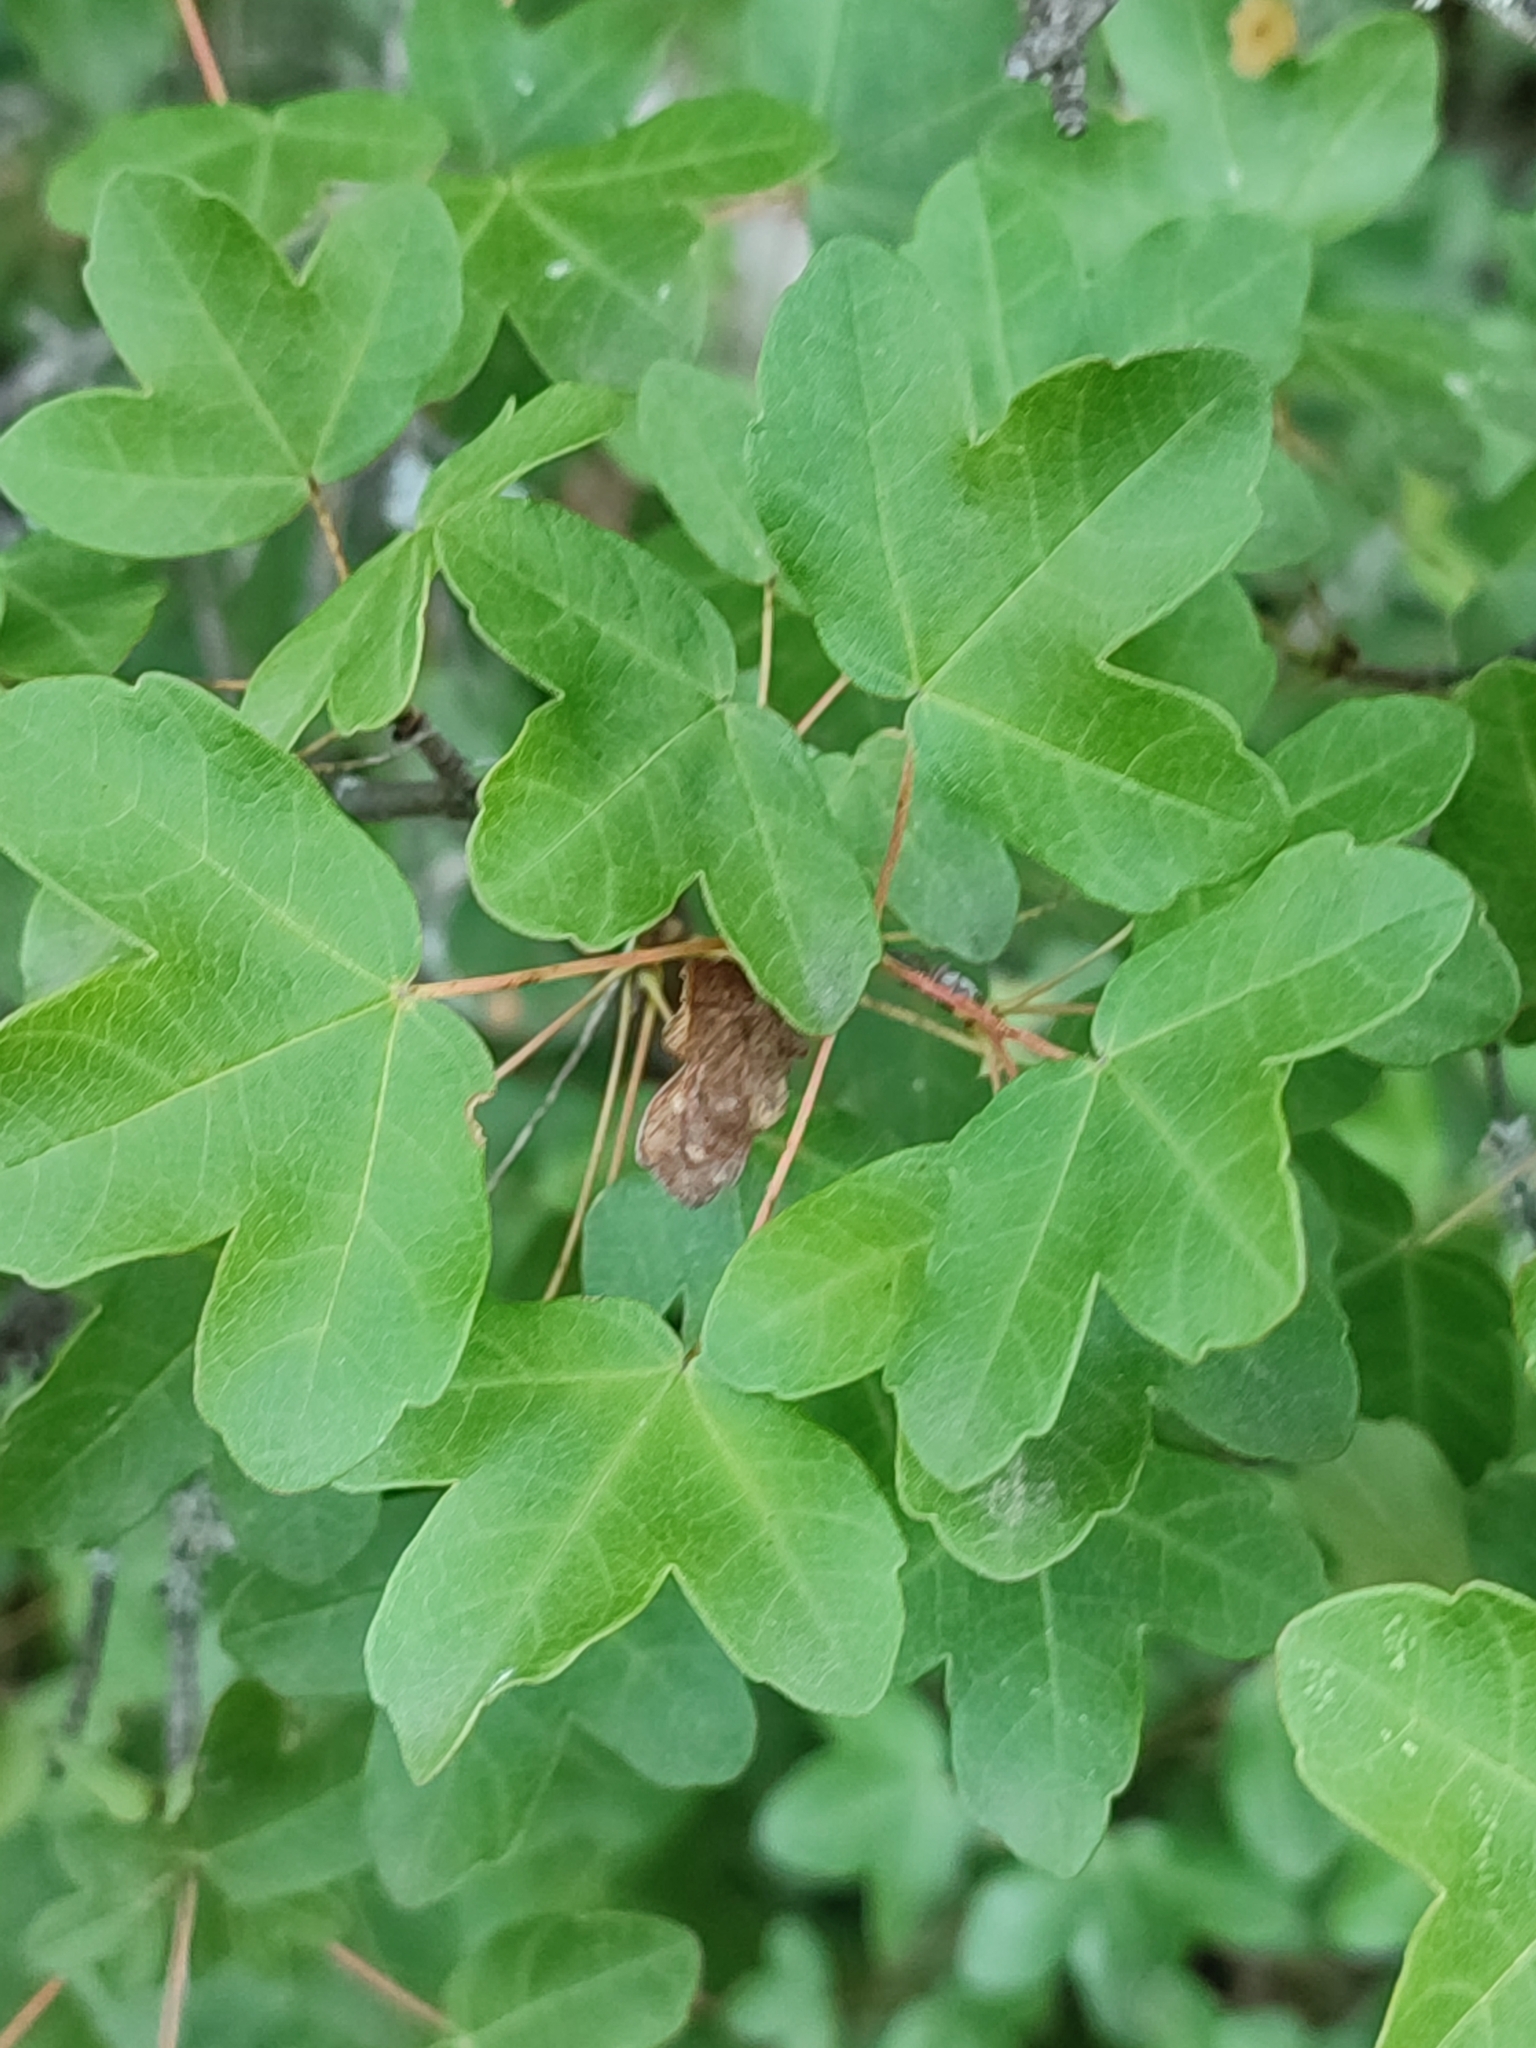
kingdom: Plantae
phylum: Tracheophyta
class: Magnoliopsida
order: Sapindales
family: Sapindaceae
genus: Acer
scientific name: Acer monspessulanum
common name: Montpellier maple
